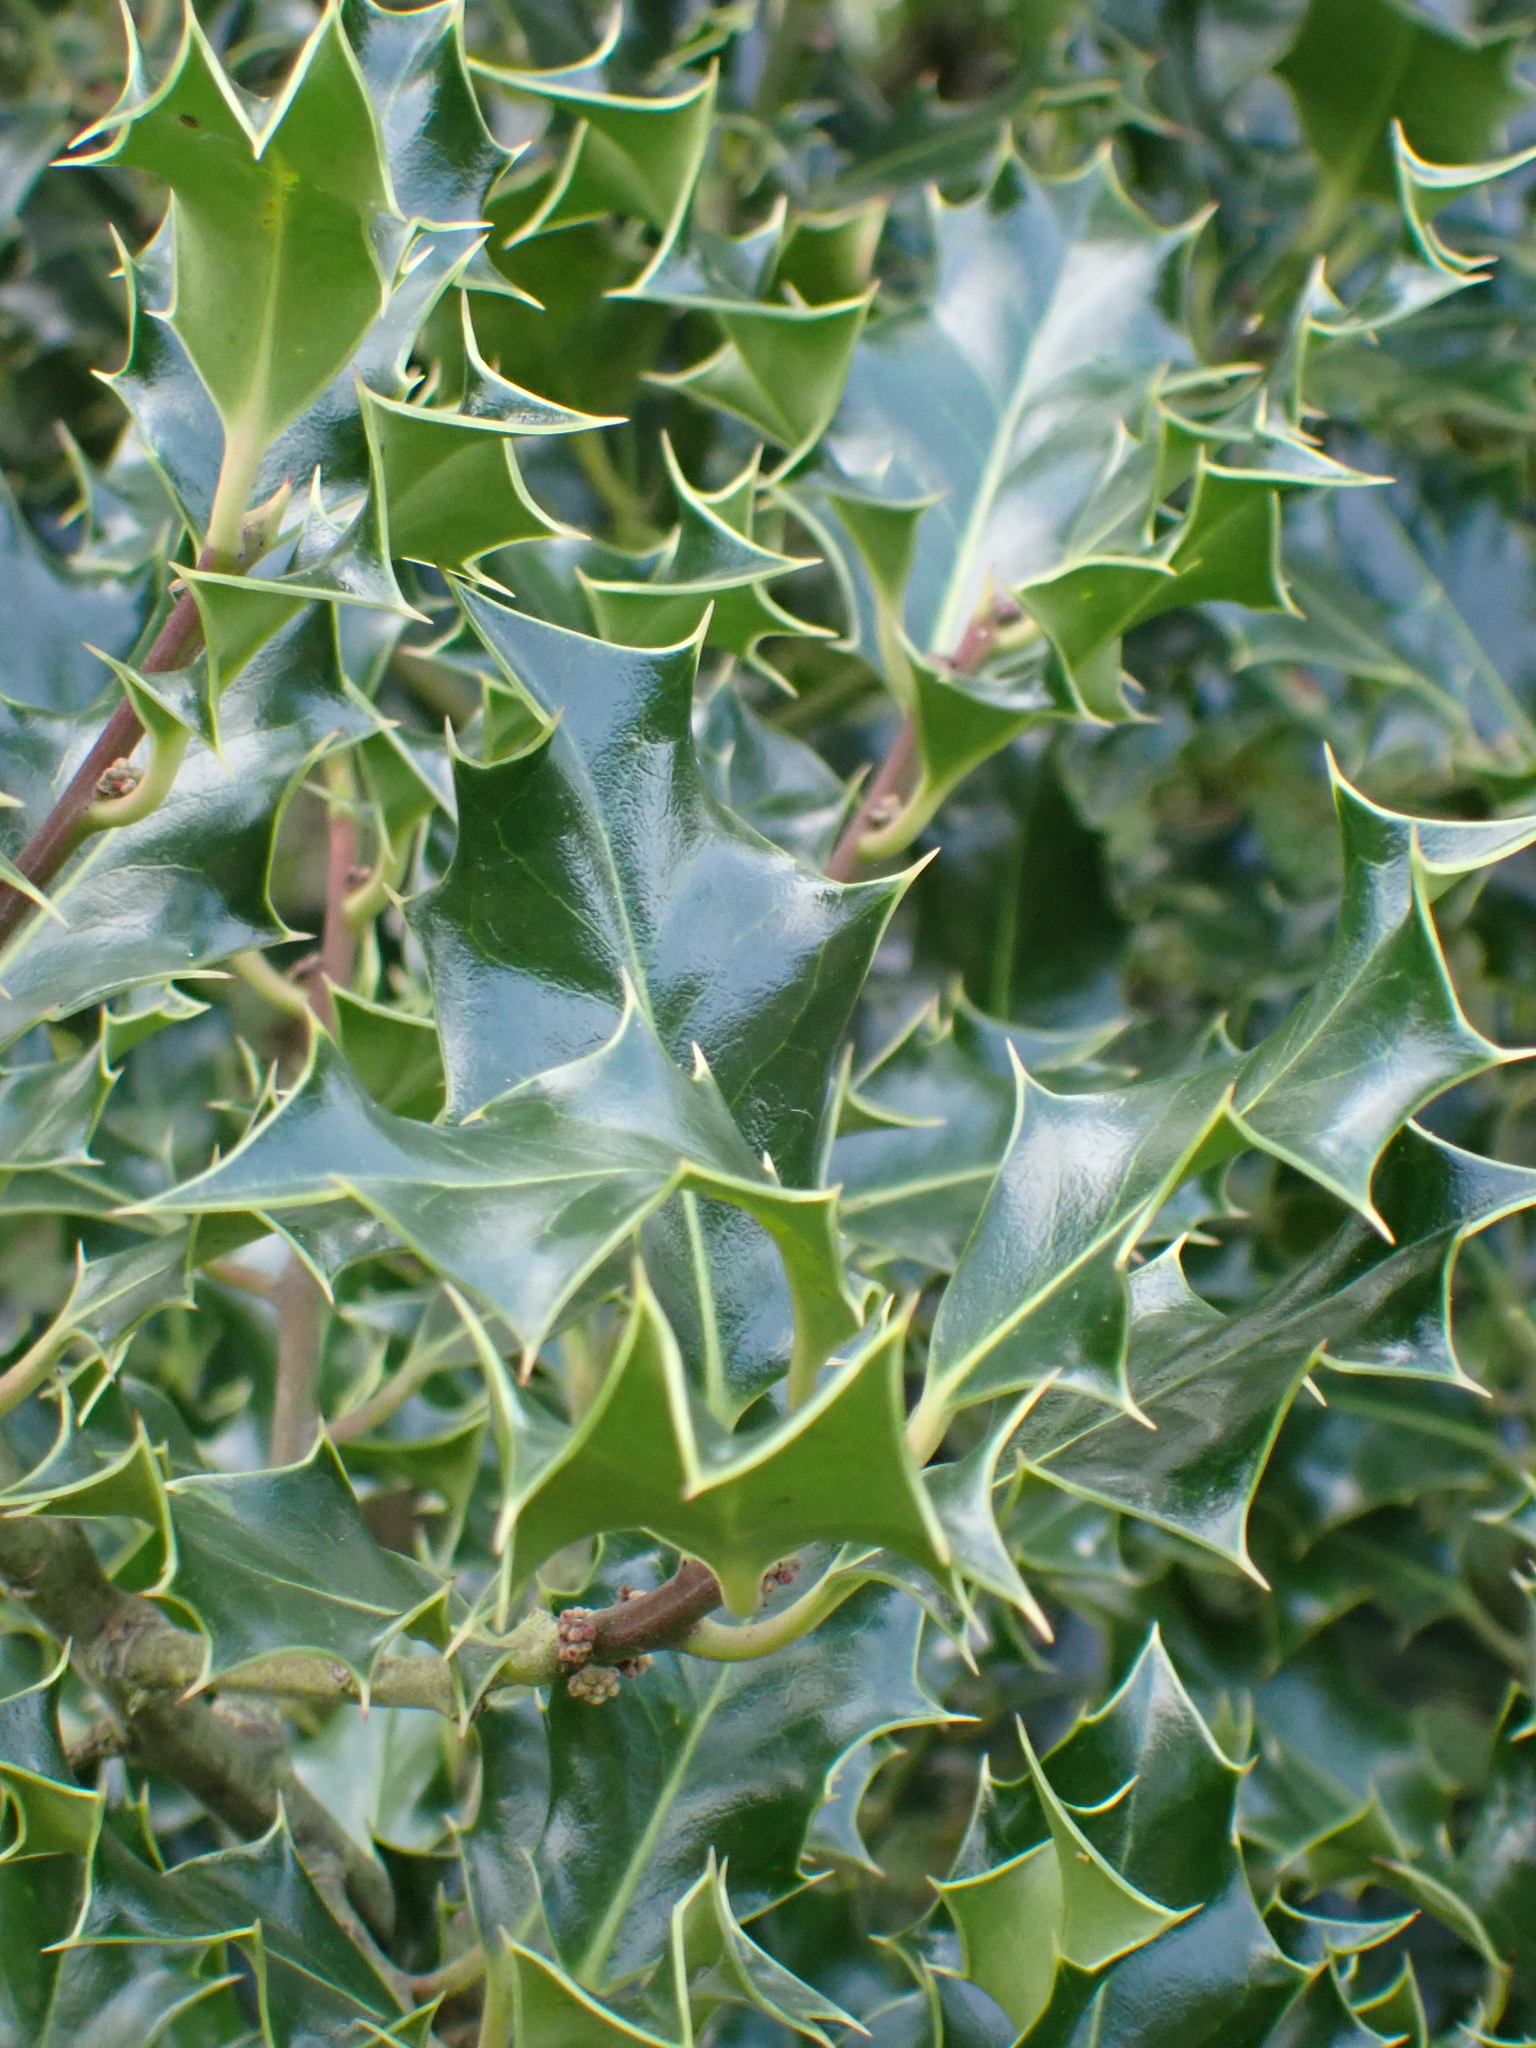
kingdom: Plantae
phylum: Tracheophyta
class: Magnoliopsida
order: Aquifoliales
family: Aquifoliaceae
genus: Ilex
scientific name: Ilex aquifolium
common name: English holly
